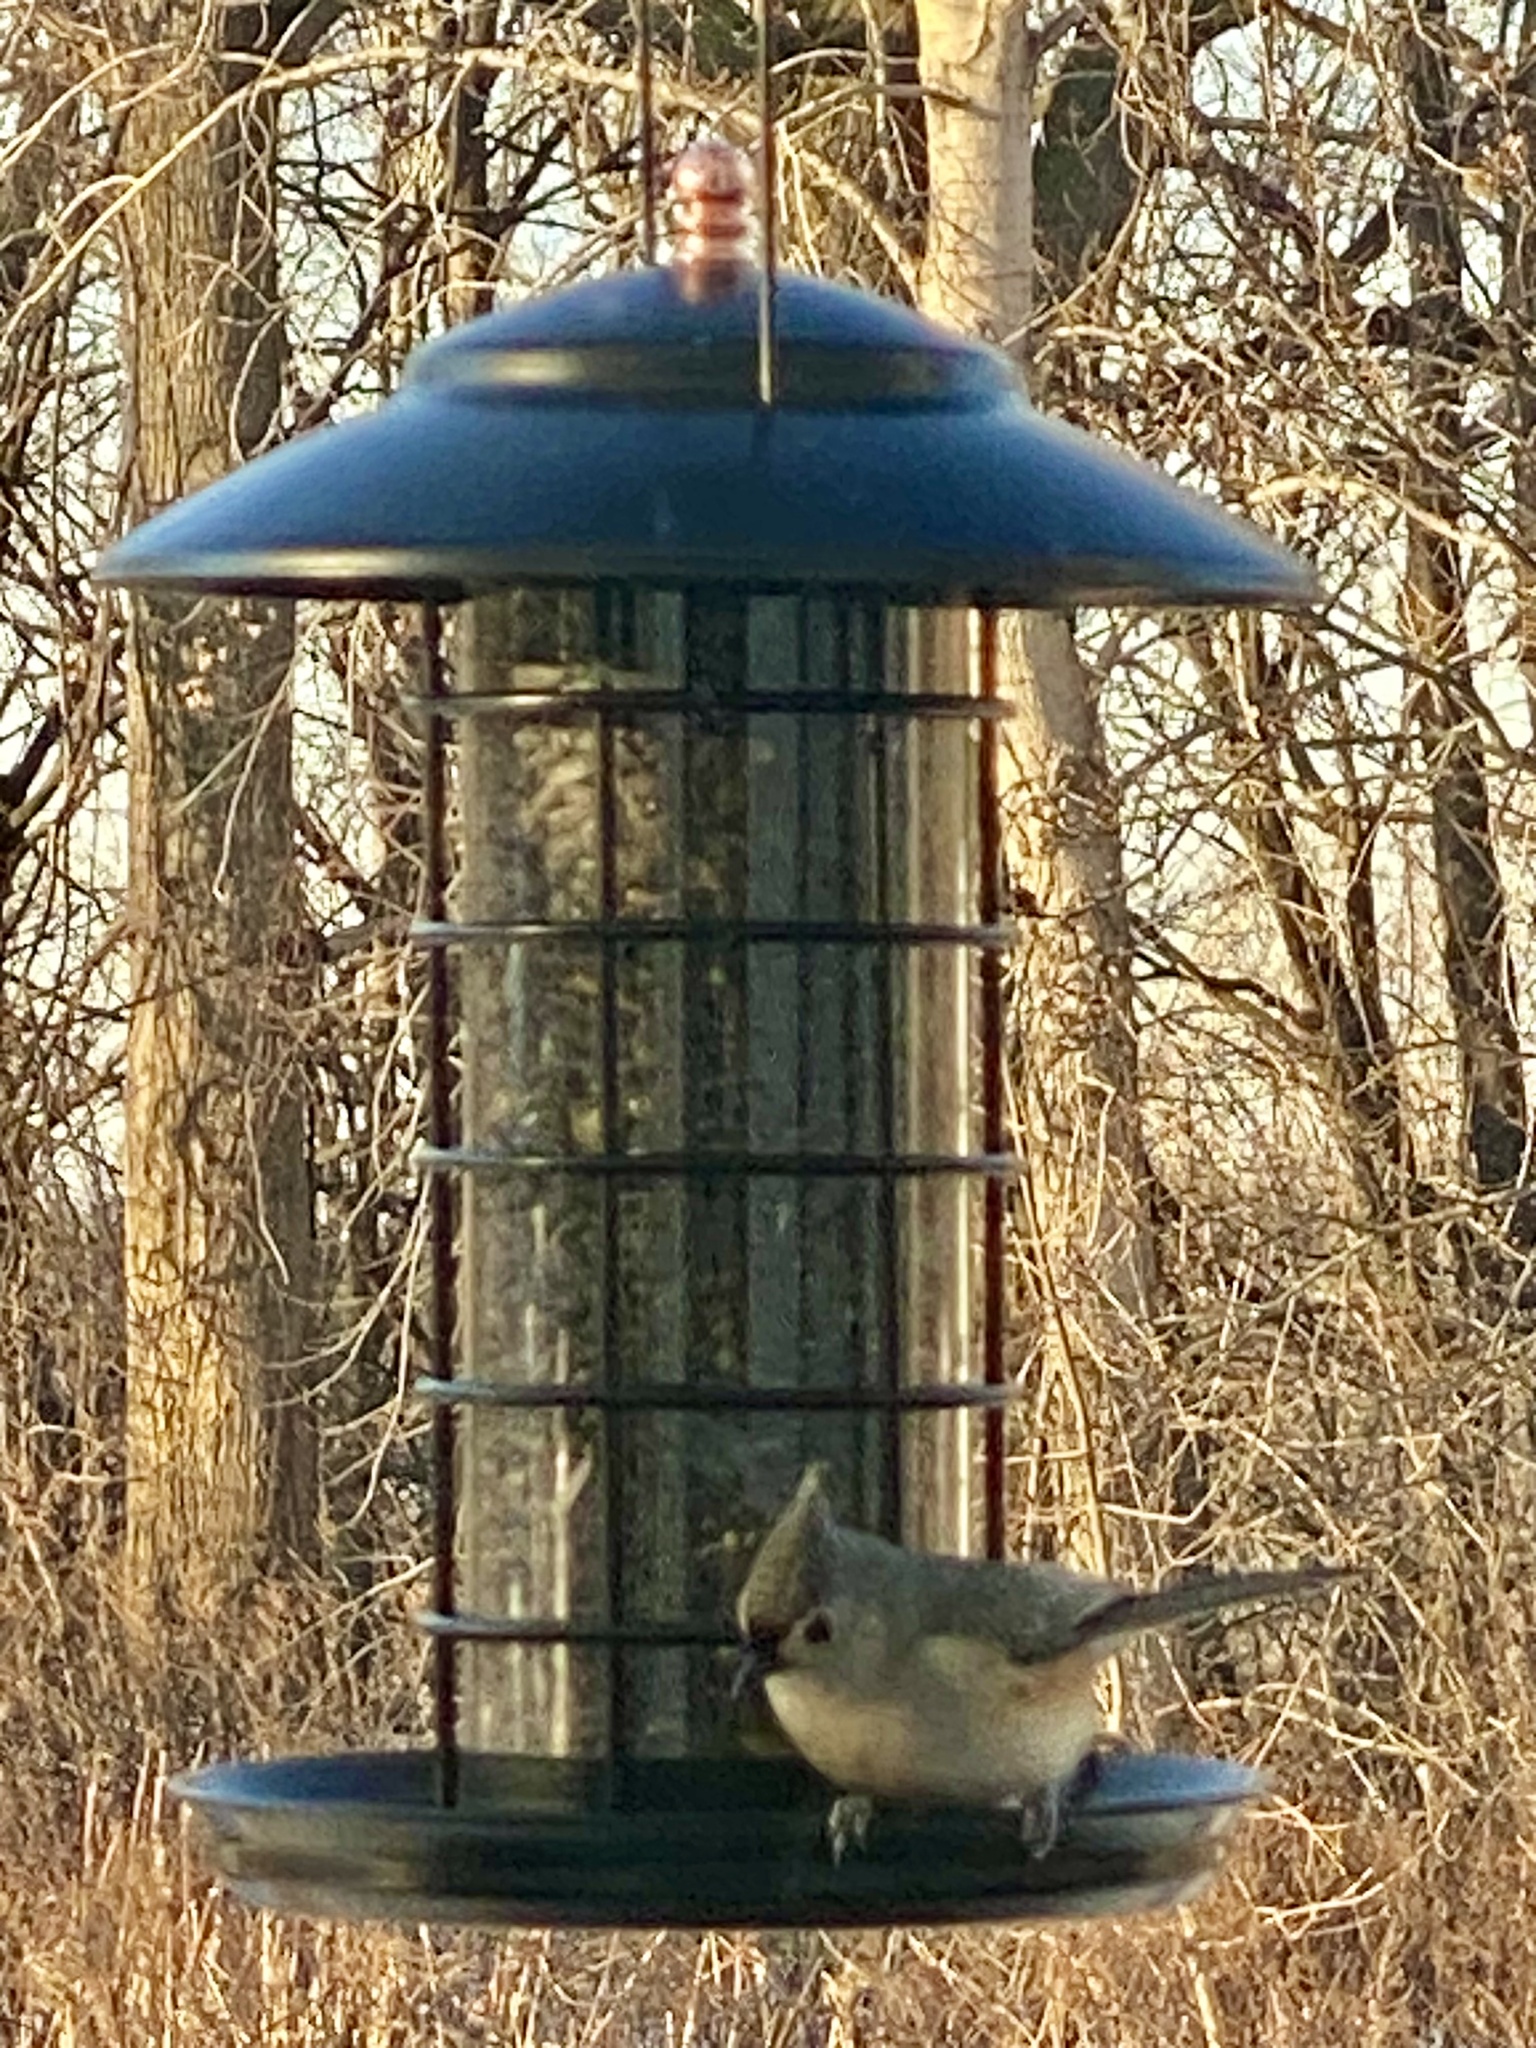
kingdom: Animalia
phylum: Chordata
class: Aves
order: Passeriformes
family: Paridae
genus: Baeolophus
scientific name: Baeolophus bicolor
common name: Tufted titmouse
